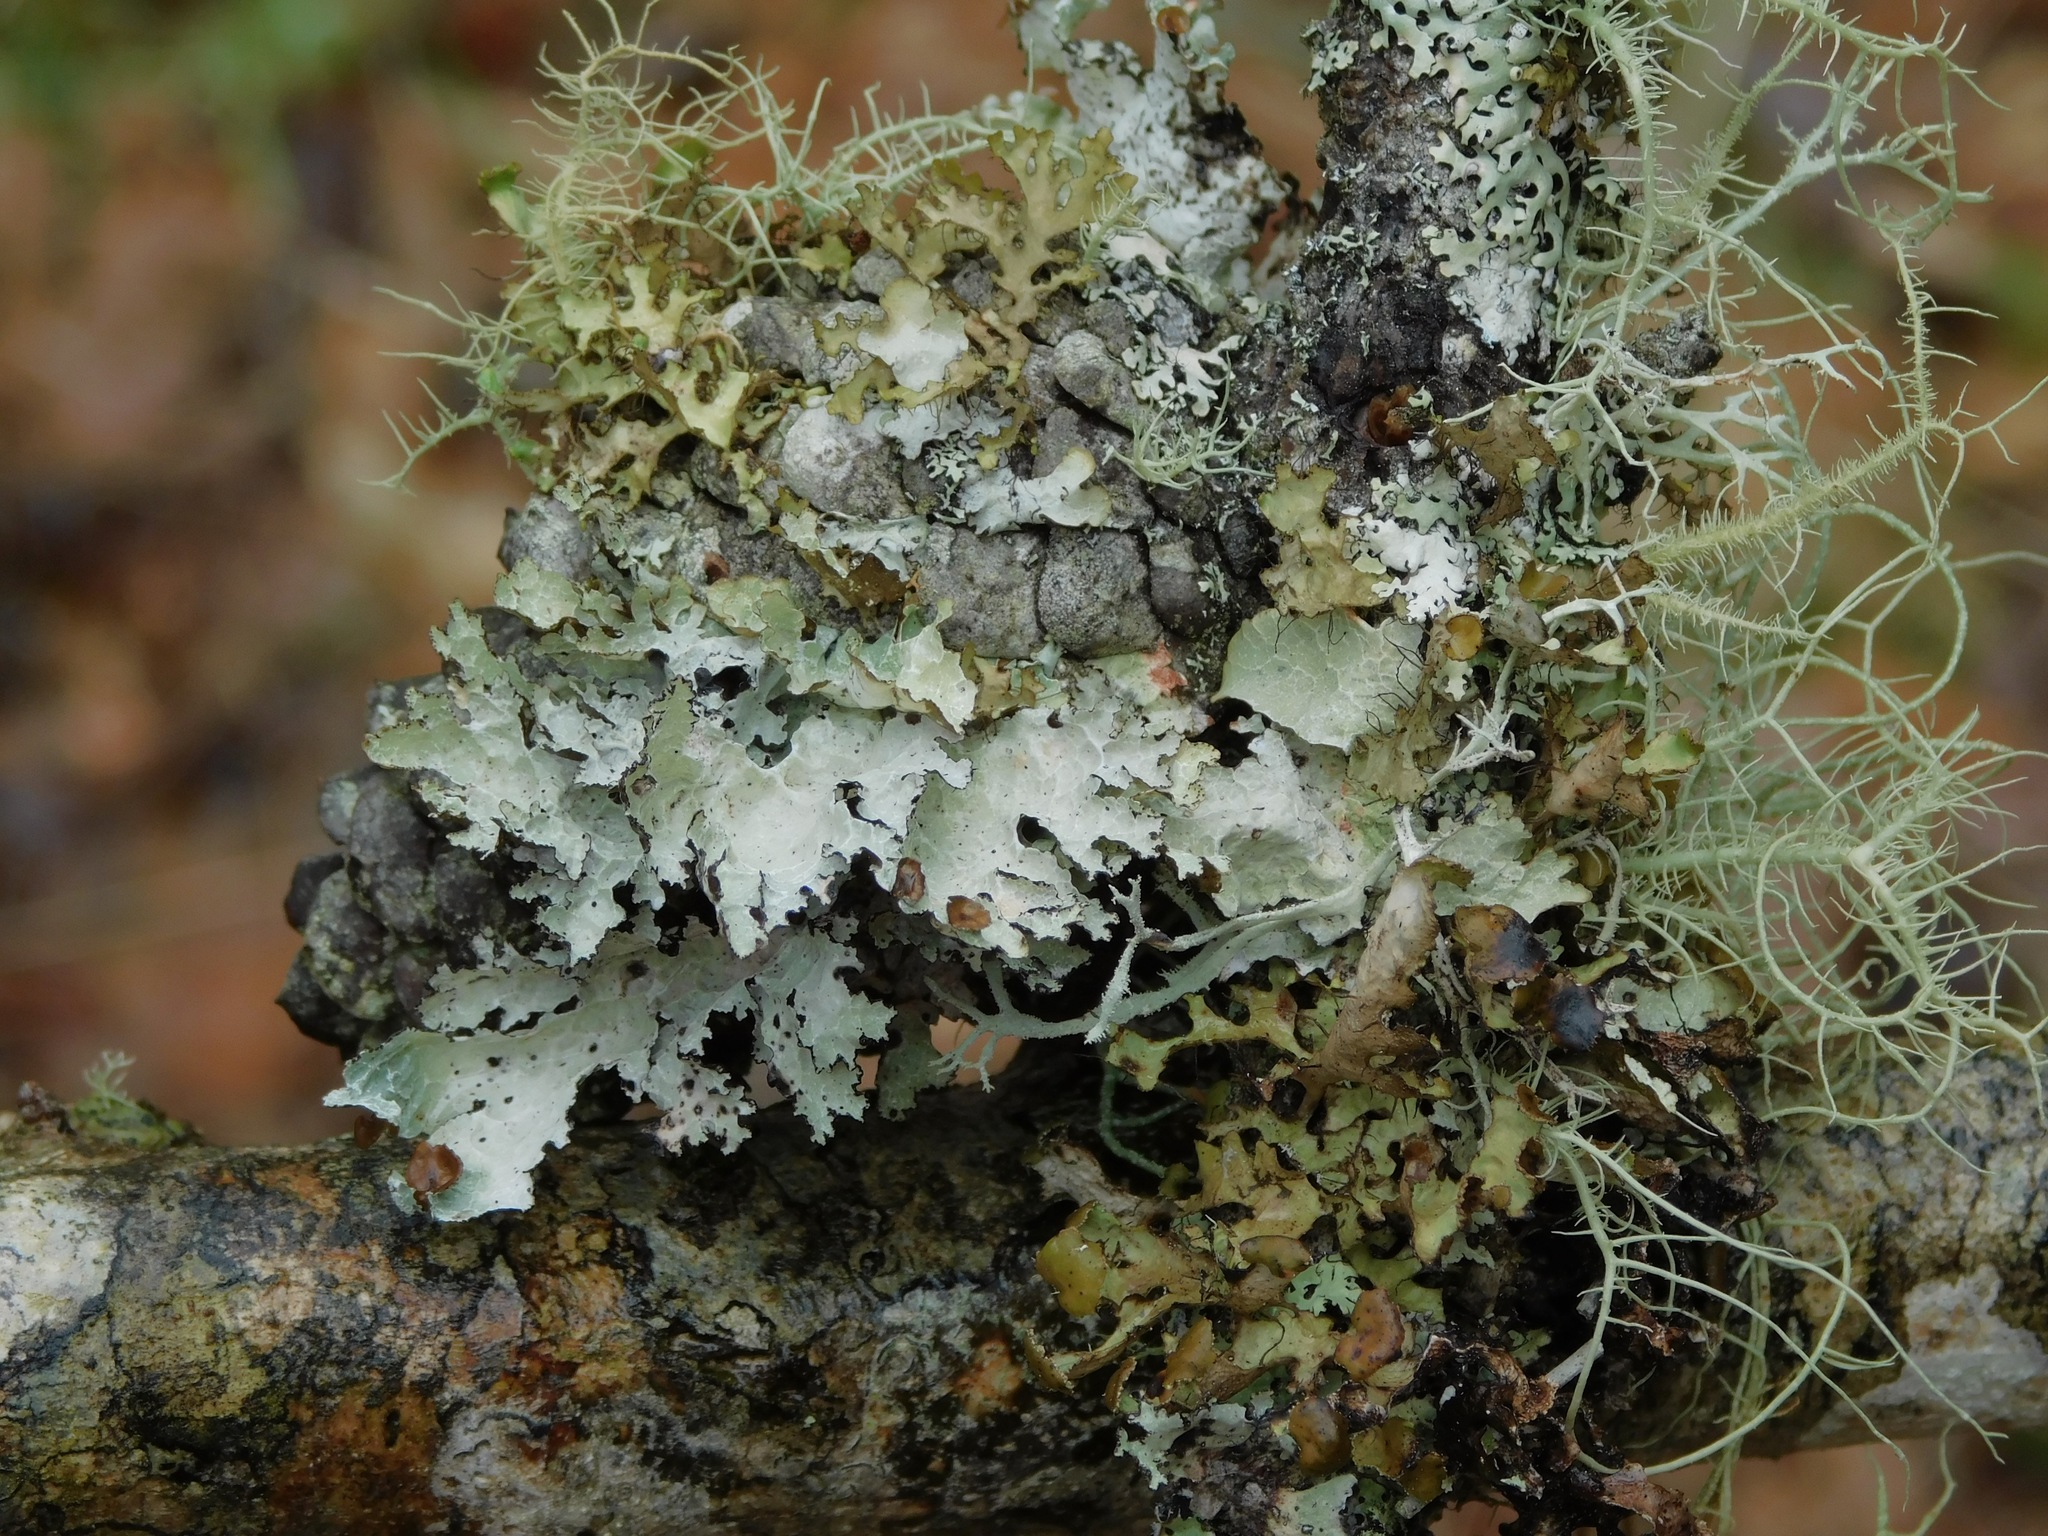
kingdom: Fungi
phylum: Ascomycota
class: Lecanoromycetes
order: Lecanorales
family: Parmeliaceae
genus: Platismatia
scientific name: Platismatia tuckermanii
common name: Crumpled rag lichen
